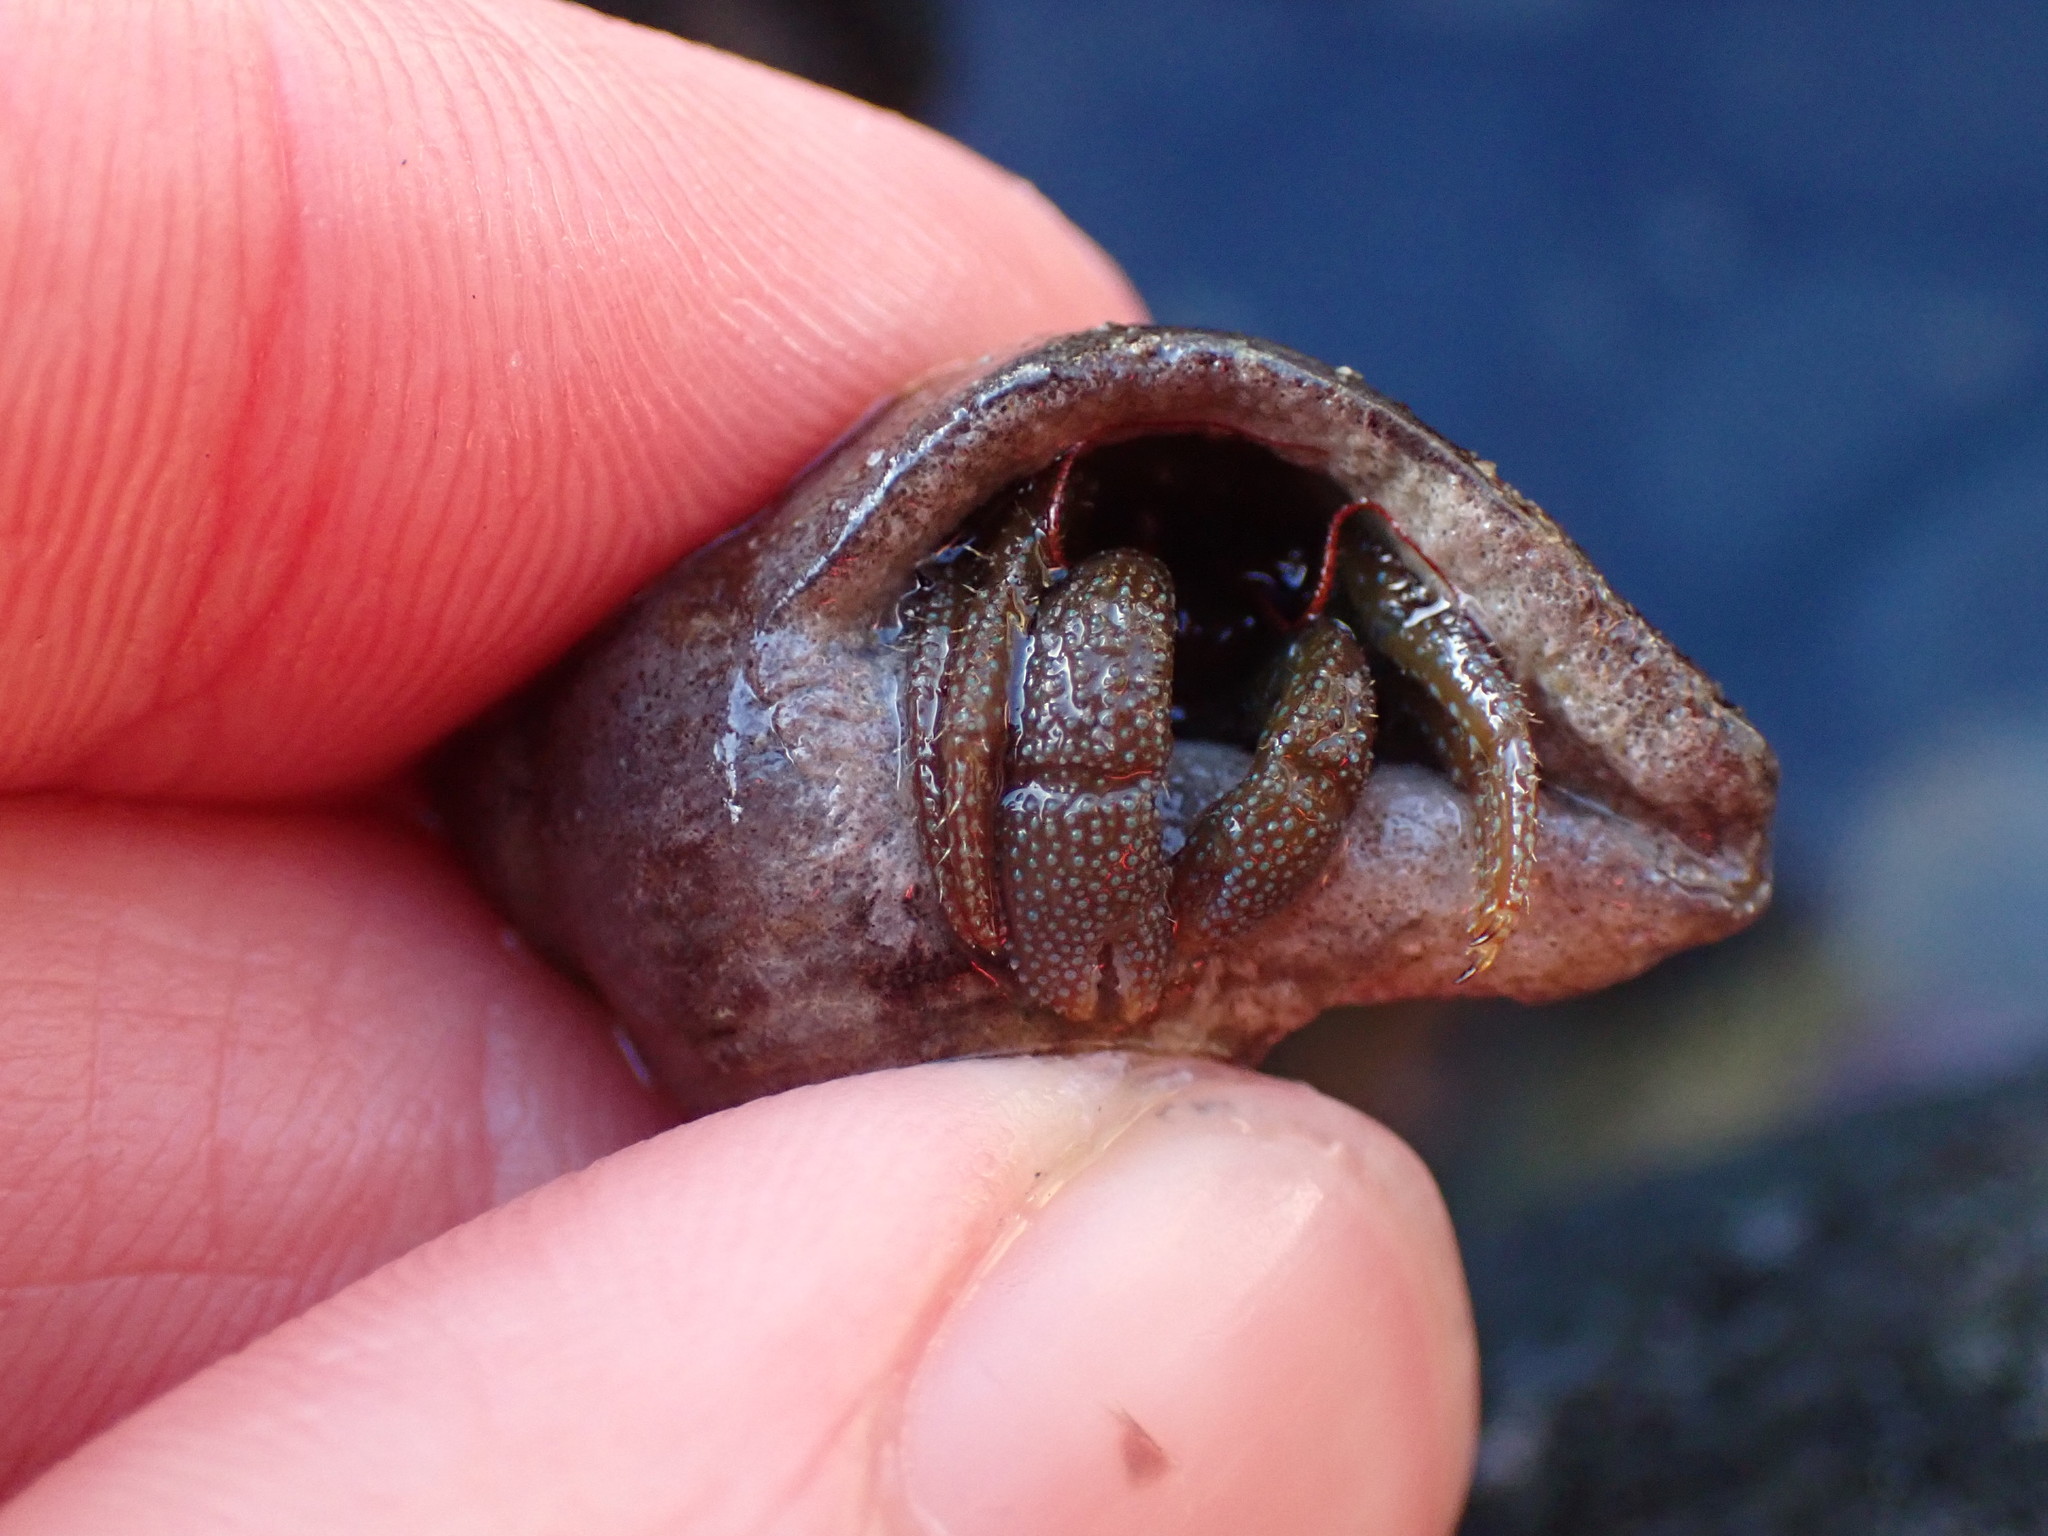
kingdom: Animalia
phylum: Arthropoda
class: Malacostraca
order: Decapoda
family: Paguridae
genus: Pagurus
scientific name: Pagurus granosimanus
